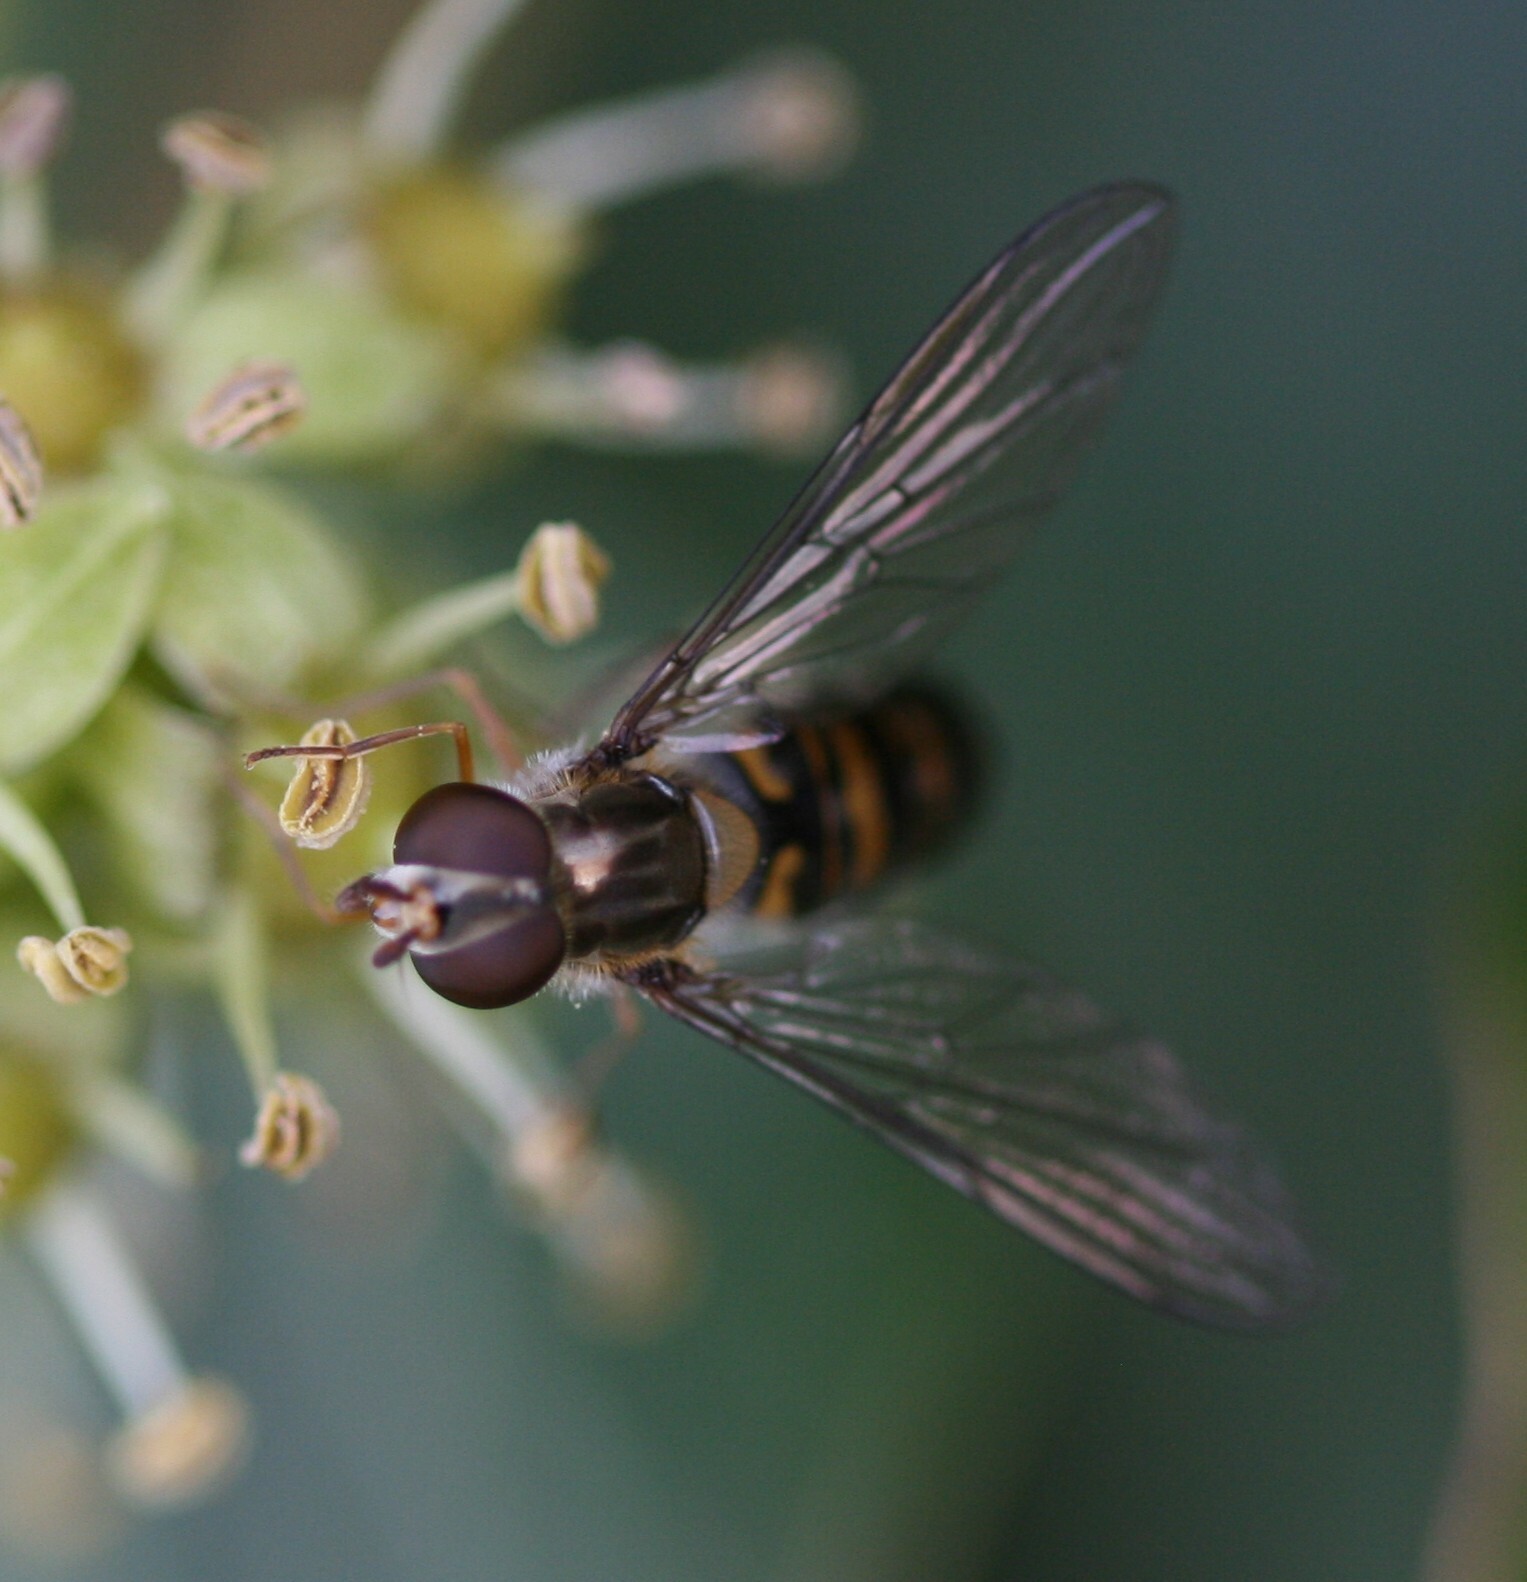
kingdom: Animalia
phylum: Arthropoda
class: Insecta
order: Diptera
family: Syrphidae
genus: Episyrphus
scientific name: Episyrphus balteatus
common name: Marmalade hoverfly
